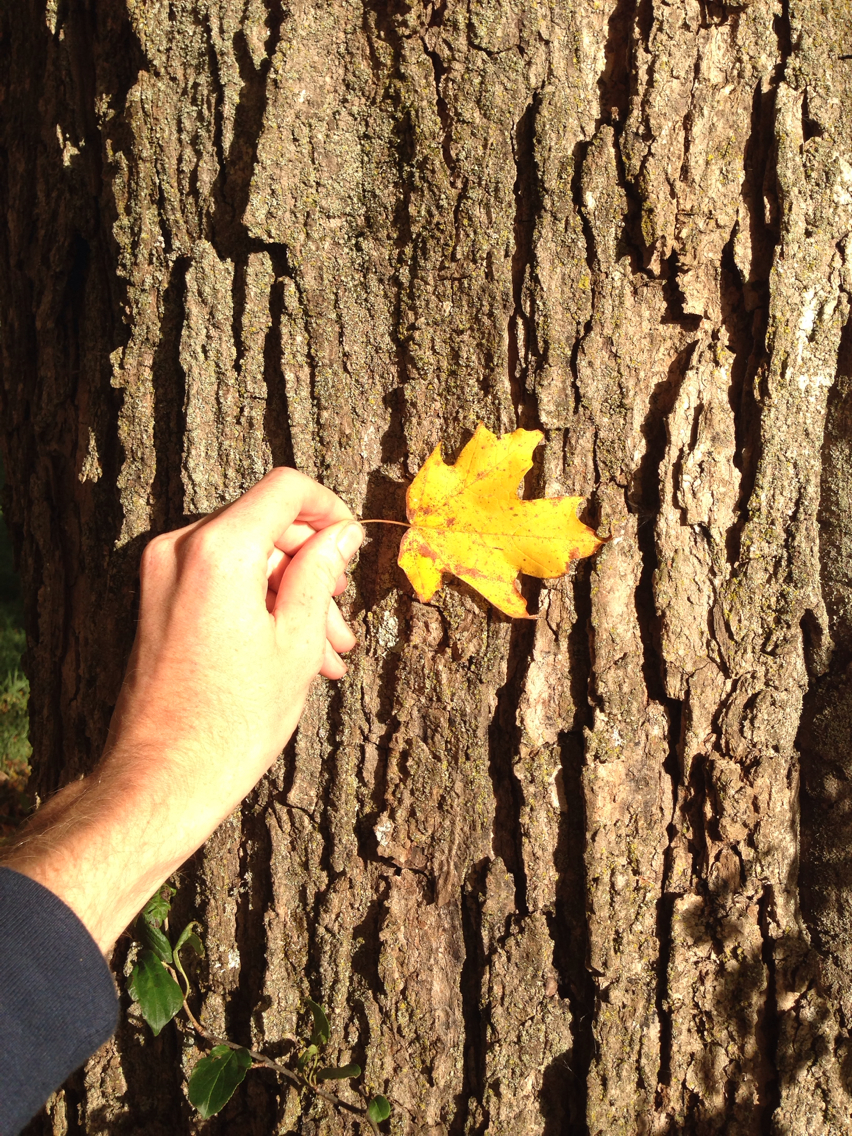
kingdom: Plantae
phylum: Tracheophyta
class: Magnoliopsida
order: Sapindales
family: Sapindaceae
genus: Acer
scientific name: Acer saccharum
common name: Sugar maple
